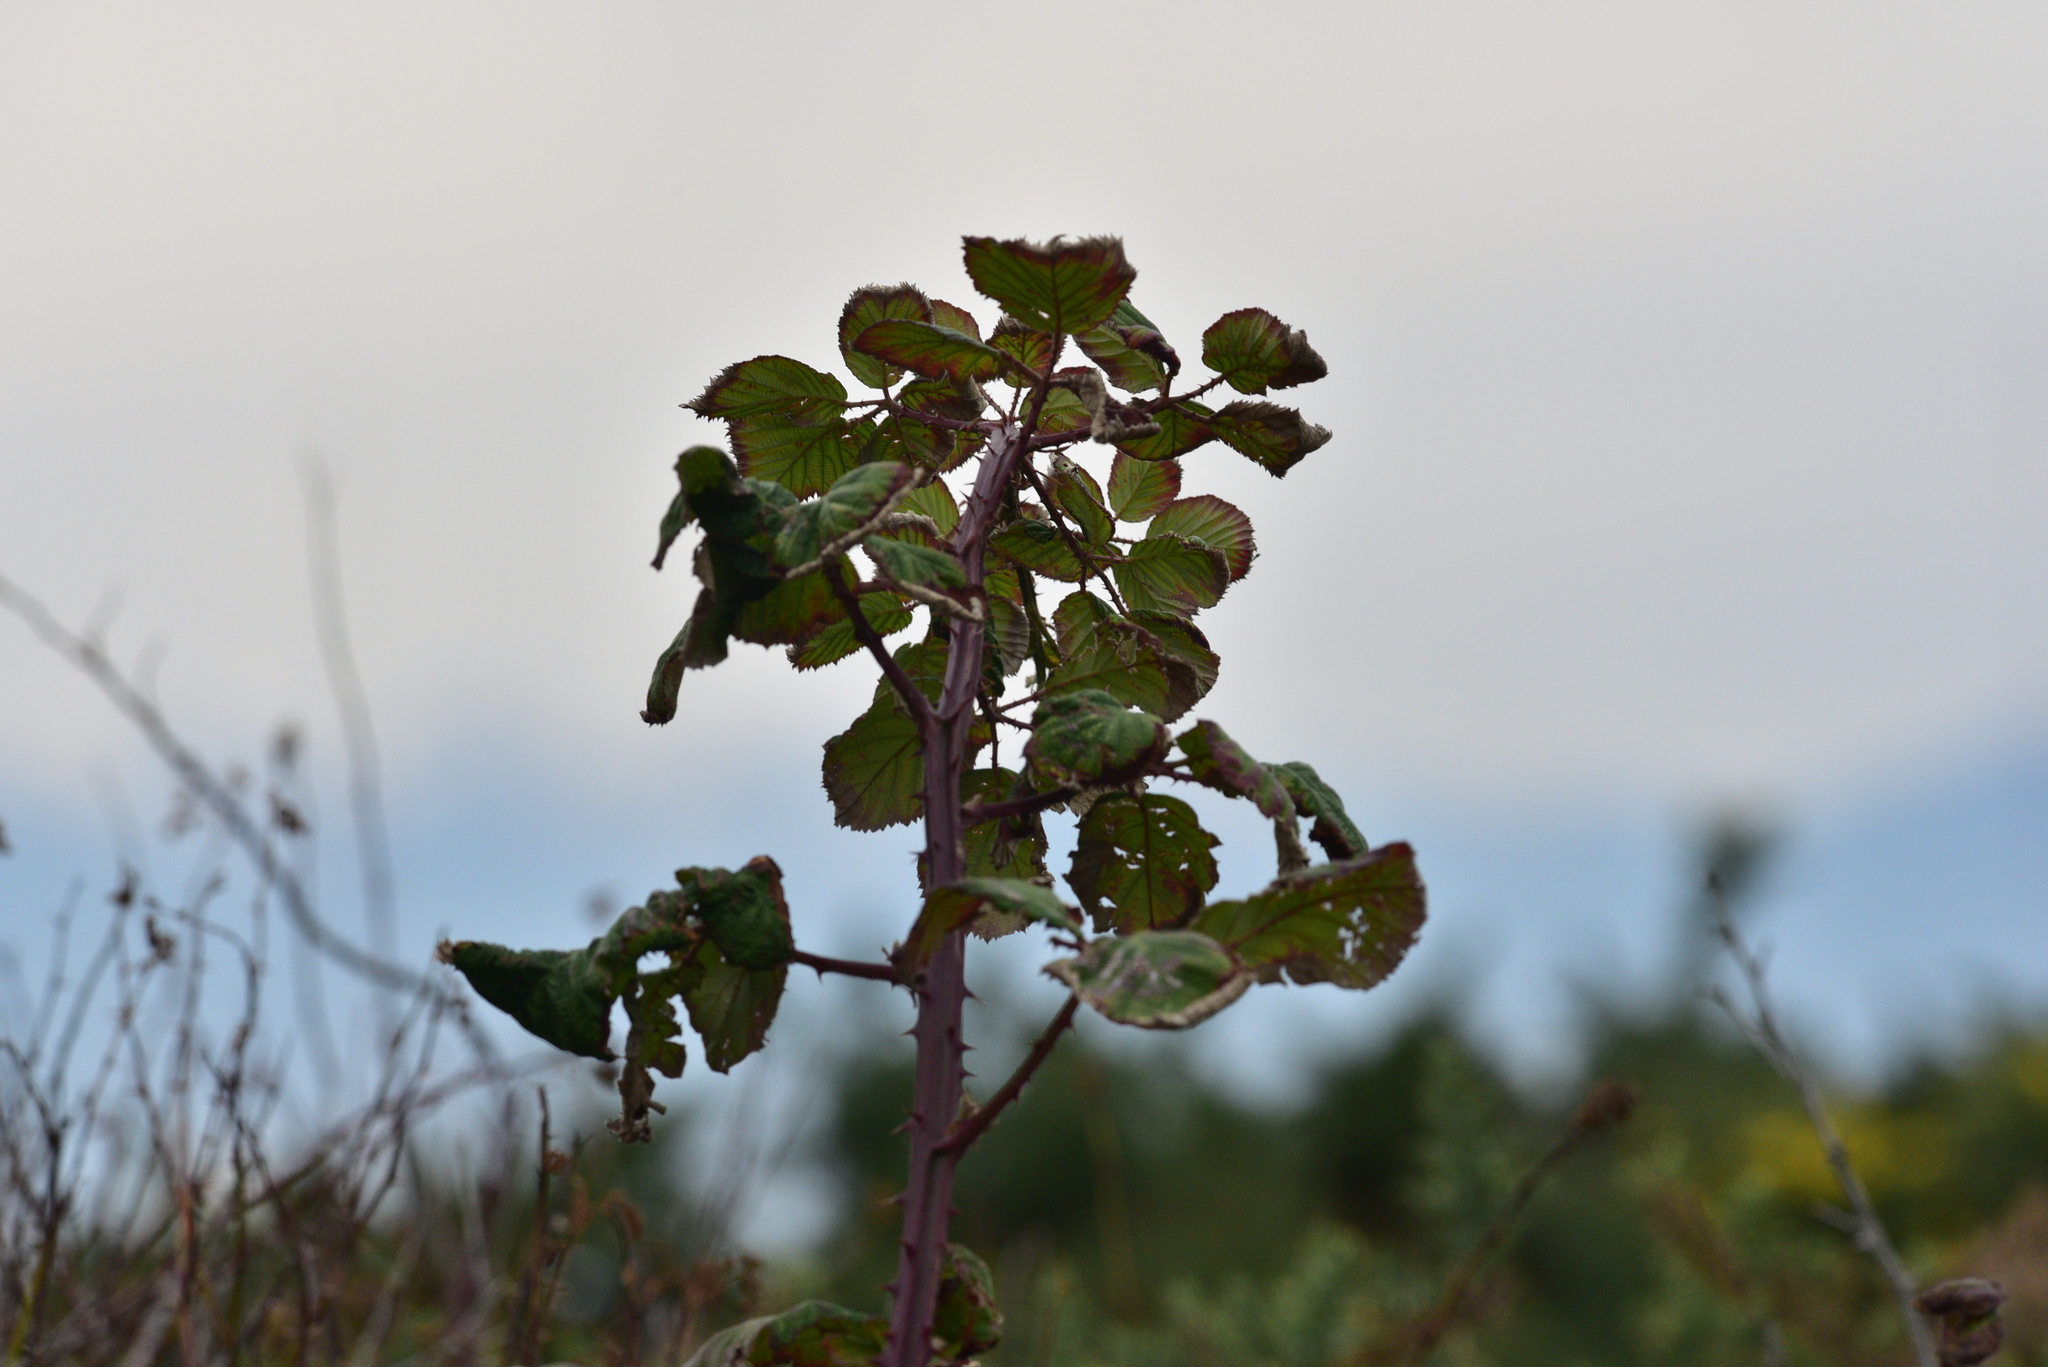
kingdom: Plantae
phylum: Tracheophyta
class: Magnoliopsida
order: Rosales
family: Rosaceae
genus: Rubus
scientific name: Rubus bifrons
